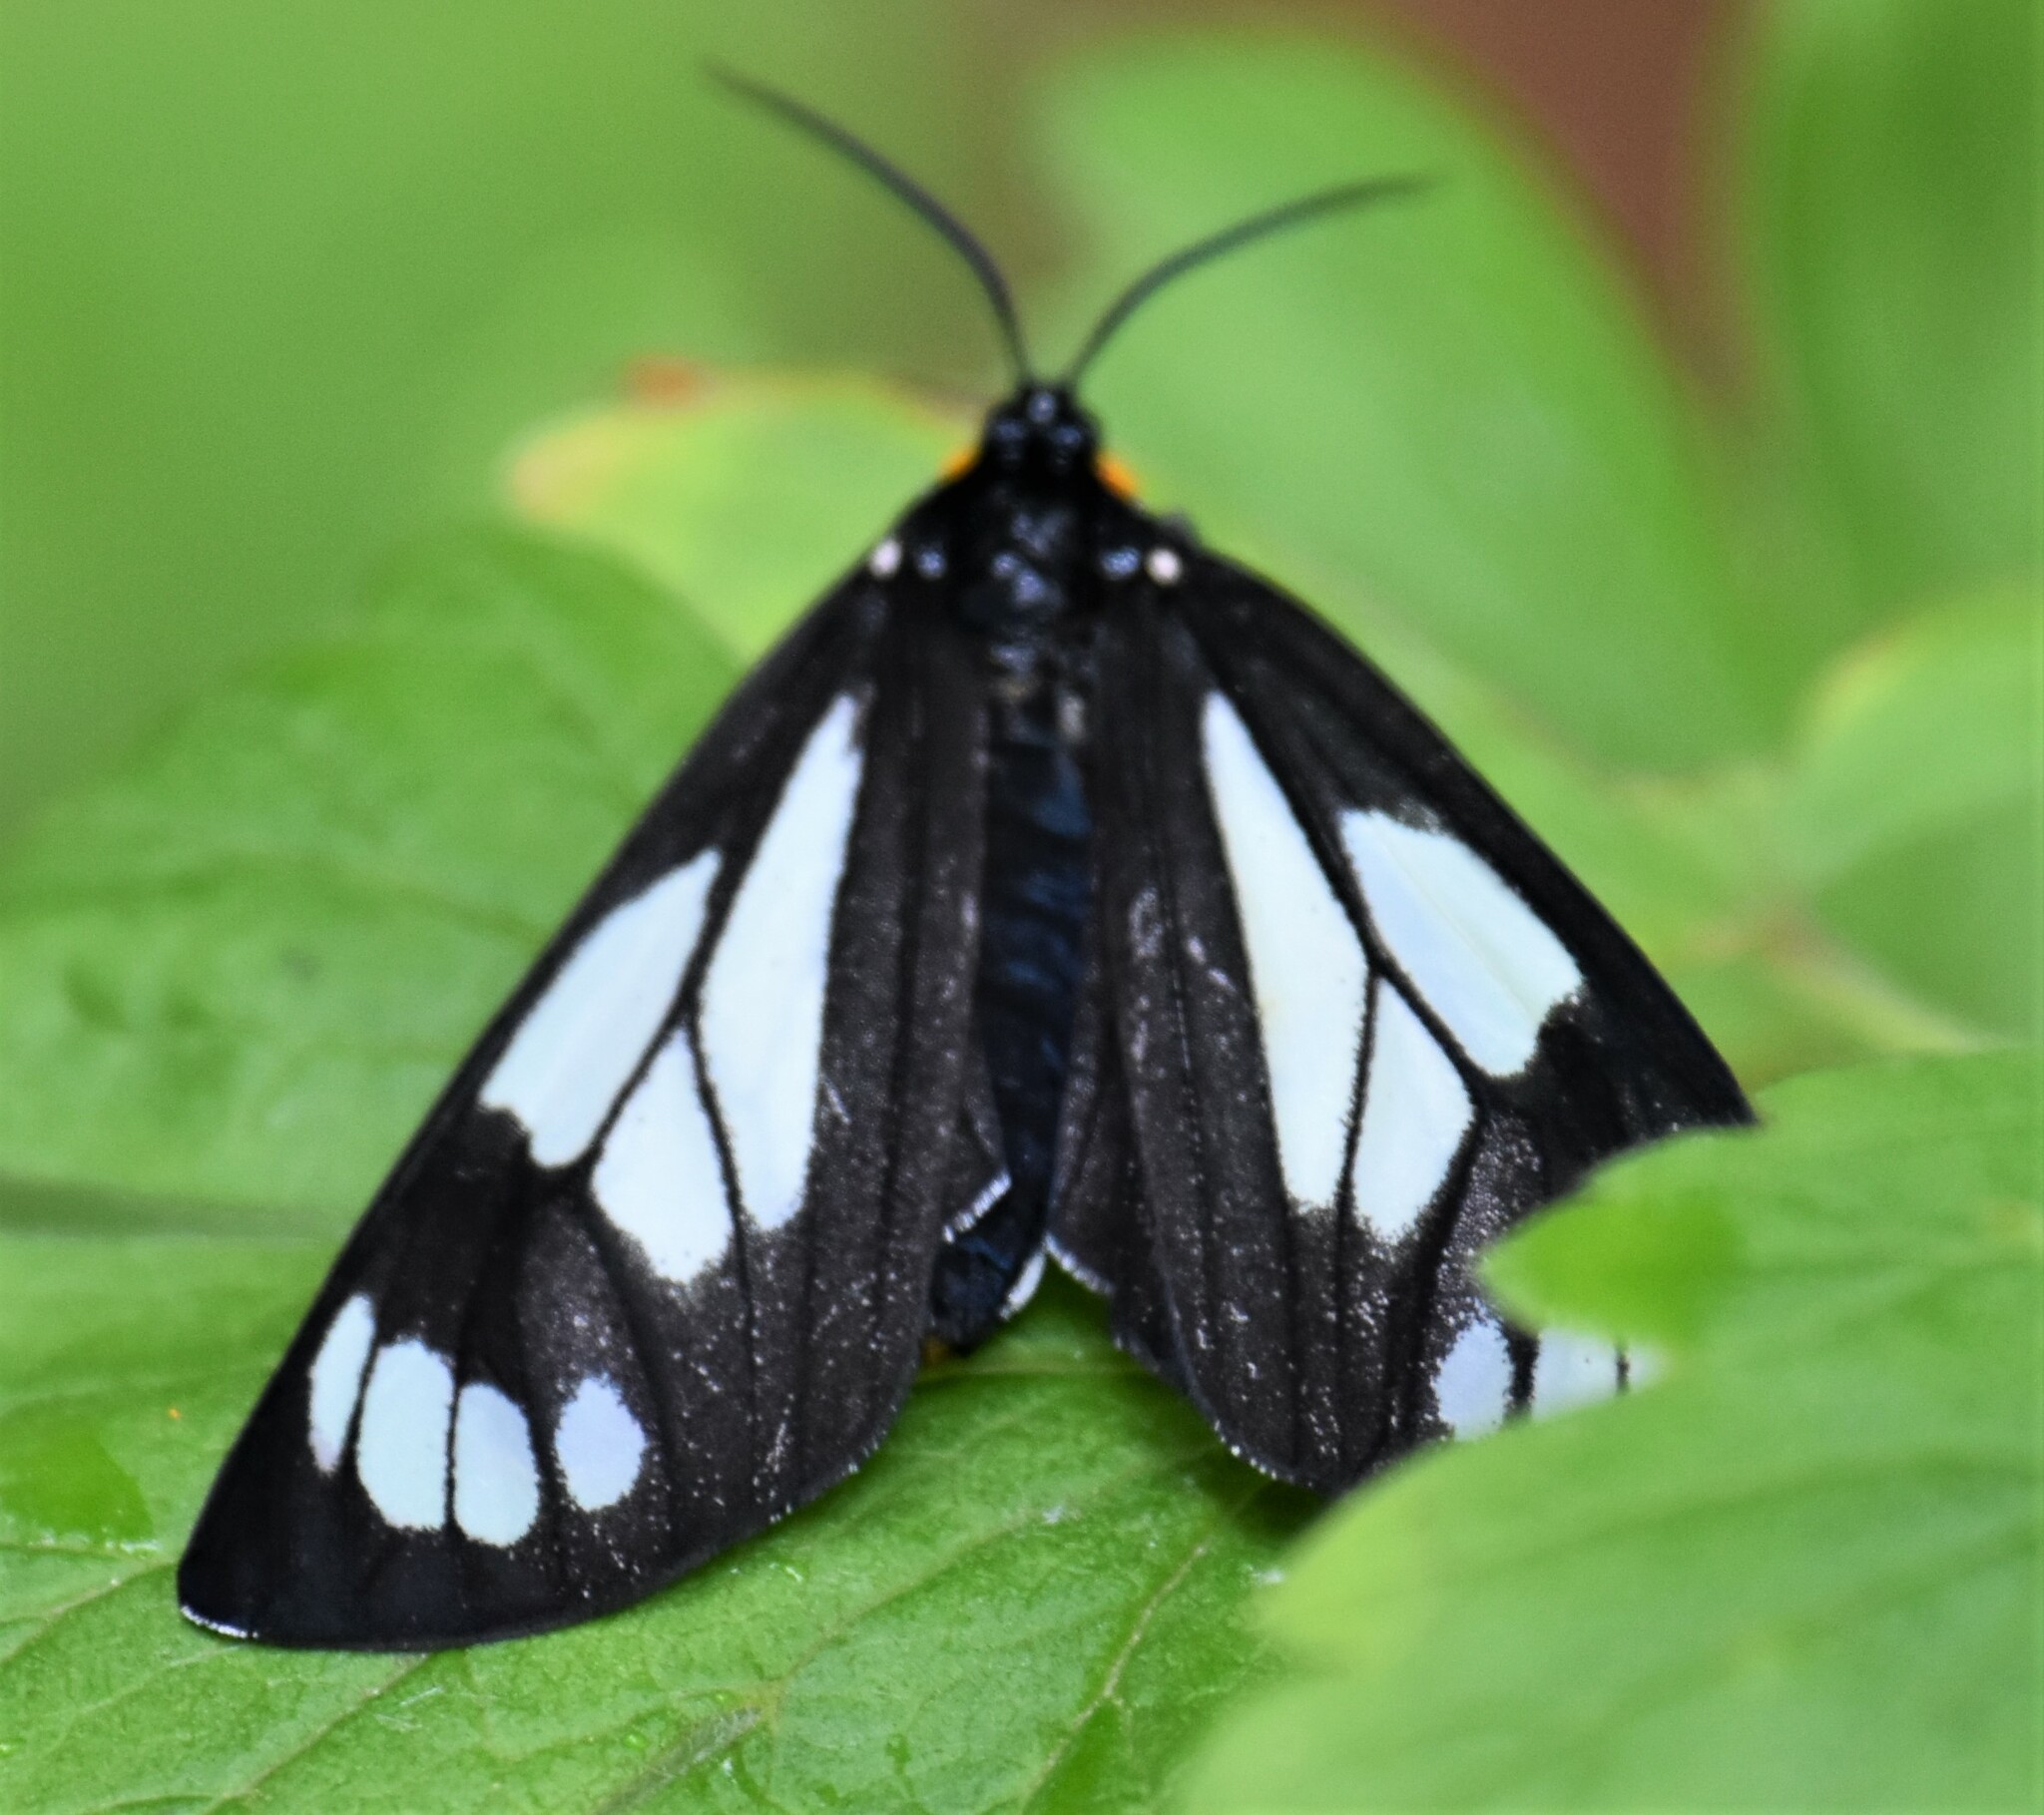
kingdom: Animalia
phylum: Arthropoda
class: Insecta
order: Lepidoptera
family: Erebidae
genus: Gnophaela
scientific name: Gnophaela vermiculata
